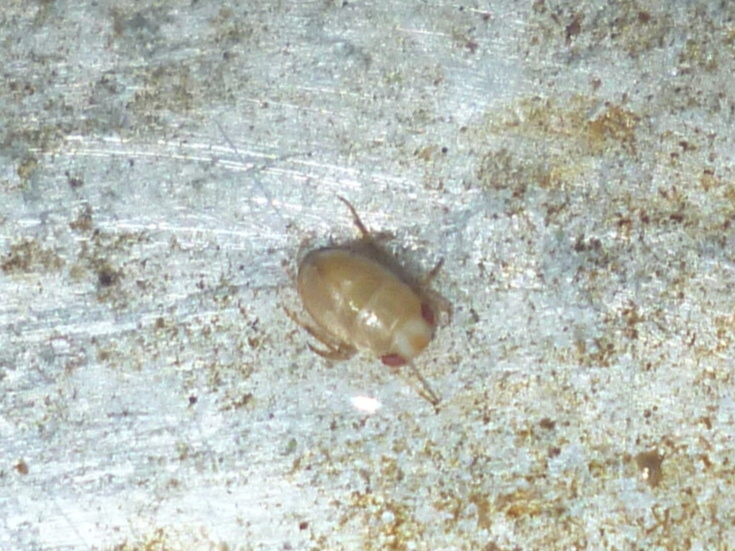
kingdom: Animalia
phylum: Arthropoda
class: Insecta
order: Hemiptera
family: Pleidae
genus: Neoplea
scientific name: Neoplea striola
